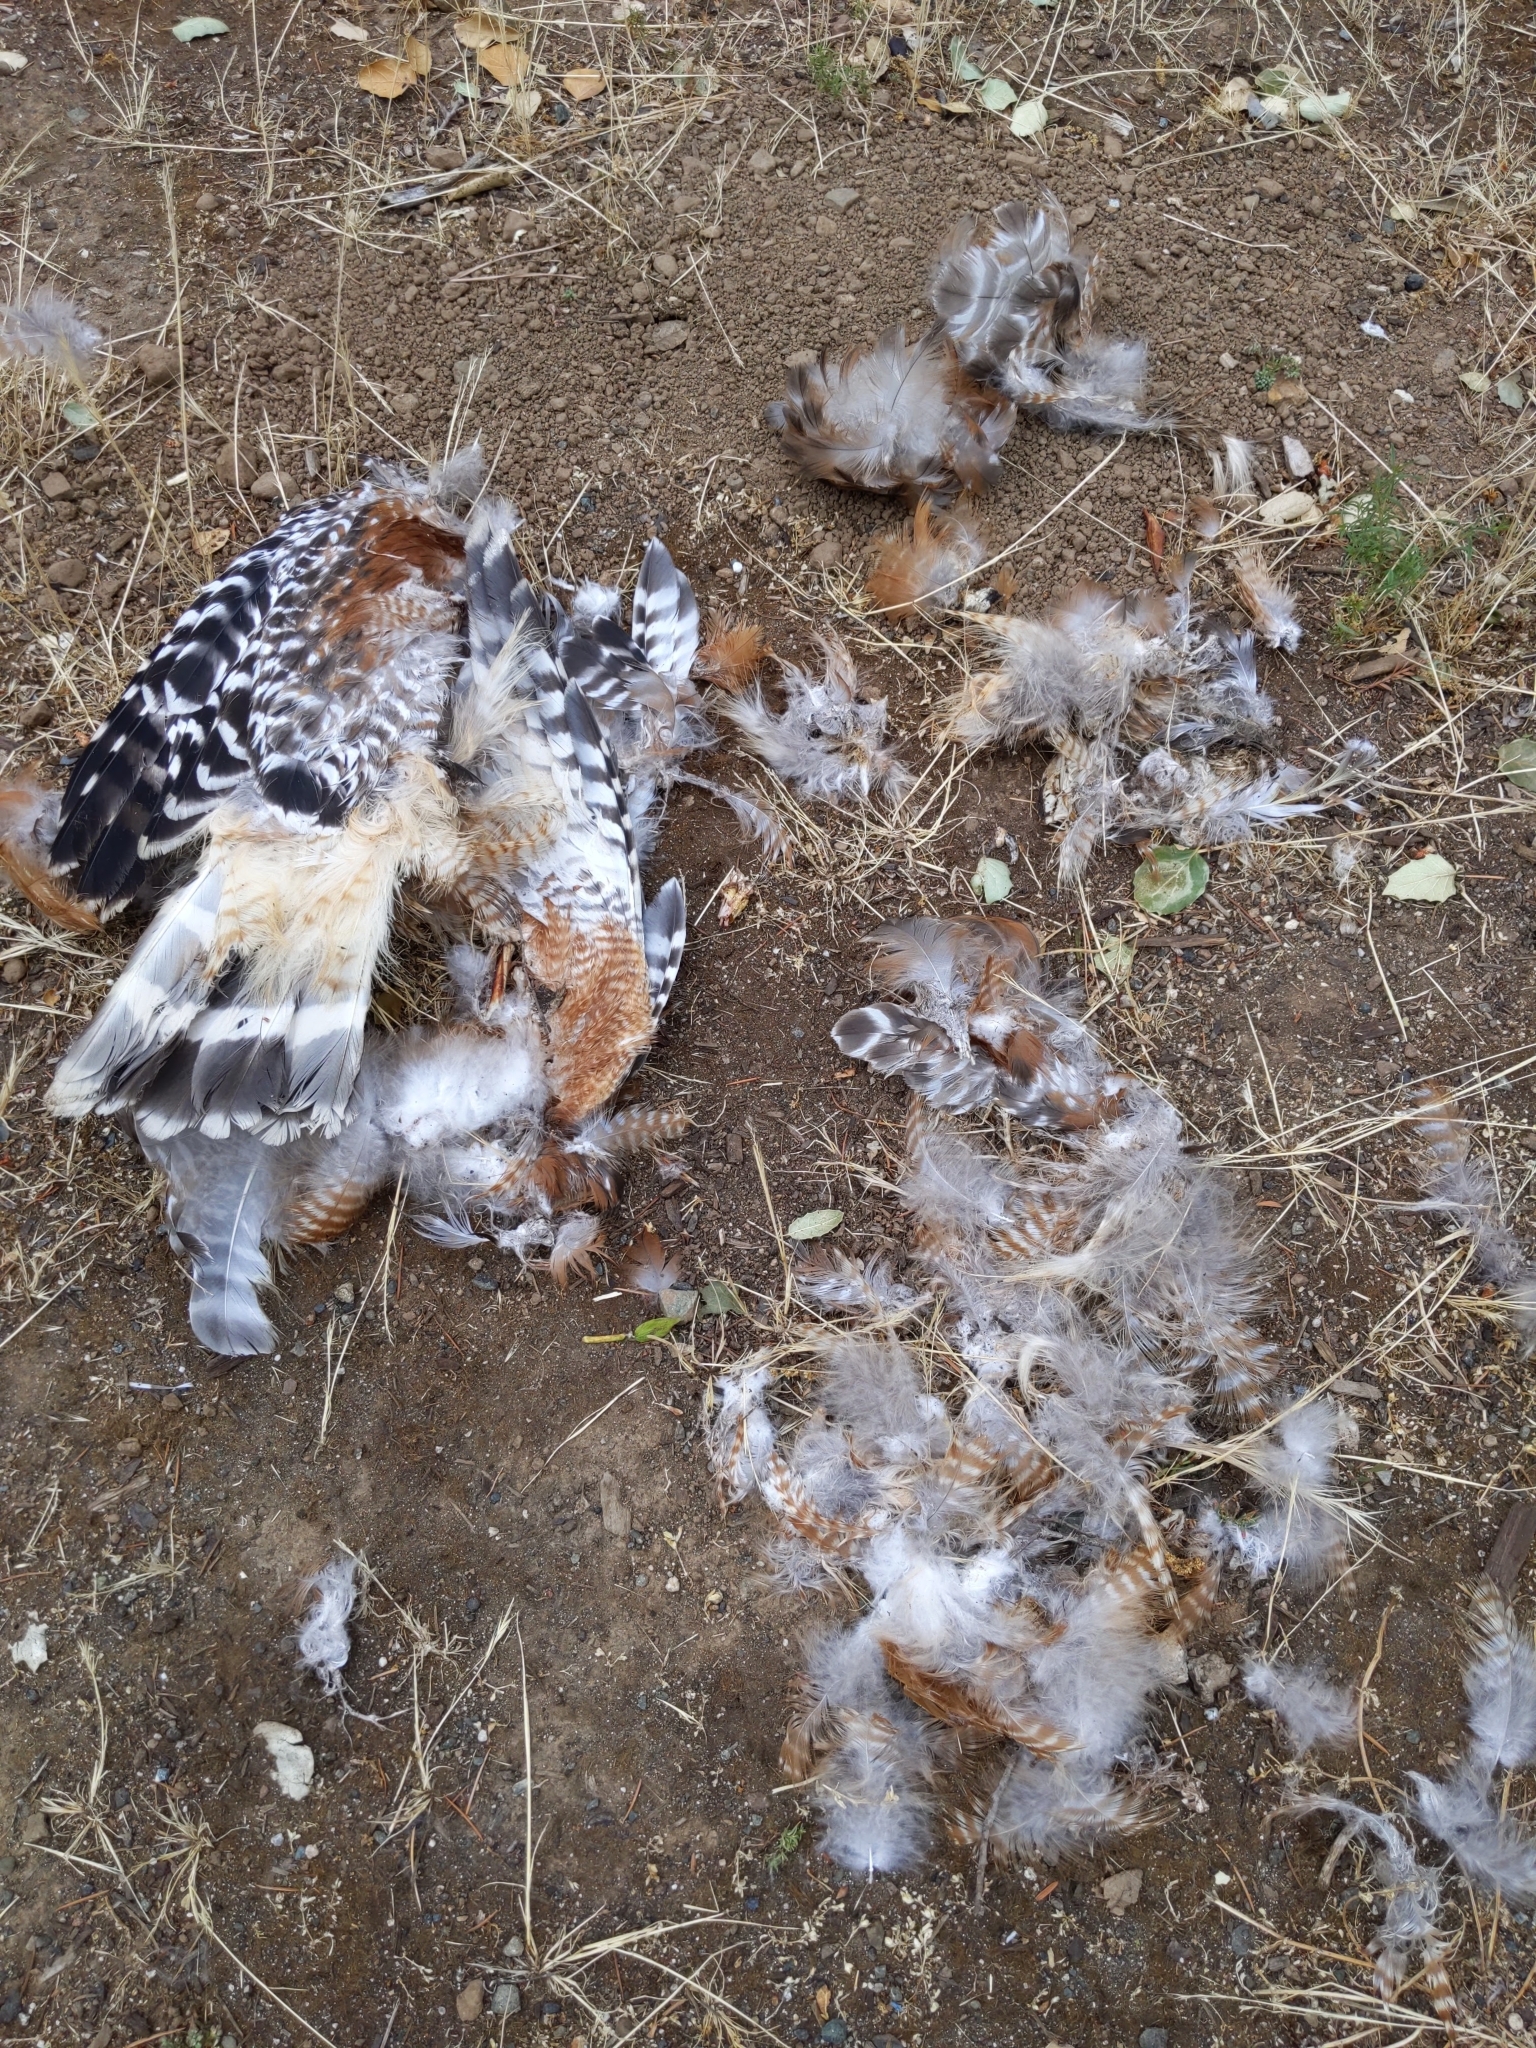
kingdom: Animalia
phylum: Chordata
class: Aves
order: Accipitriformes
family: Accipitridae
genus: Buteo
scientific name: Buteo lineatus
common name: Red-shouldered hawk
